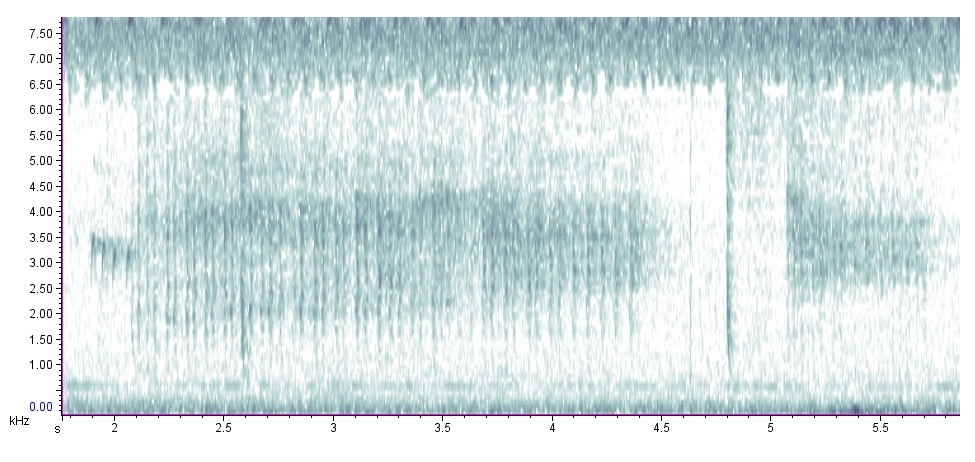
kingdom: Animalia
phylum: Chordata
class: Aves
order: Coraciiformes
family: Alcedinidae
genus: Megaceryle
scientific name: Megaceryle alcyon
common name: Belted kingfisher
